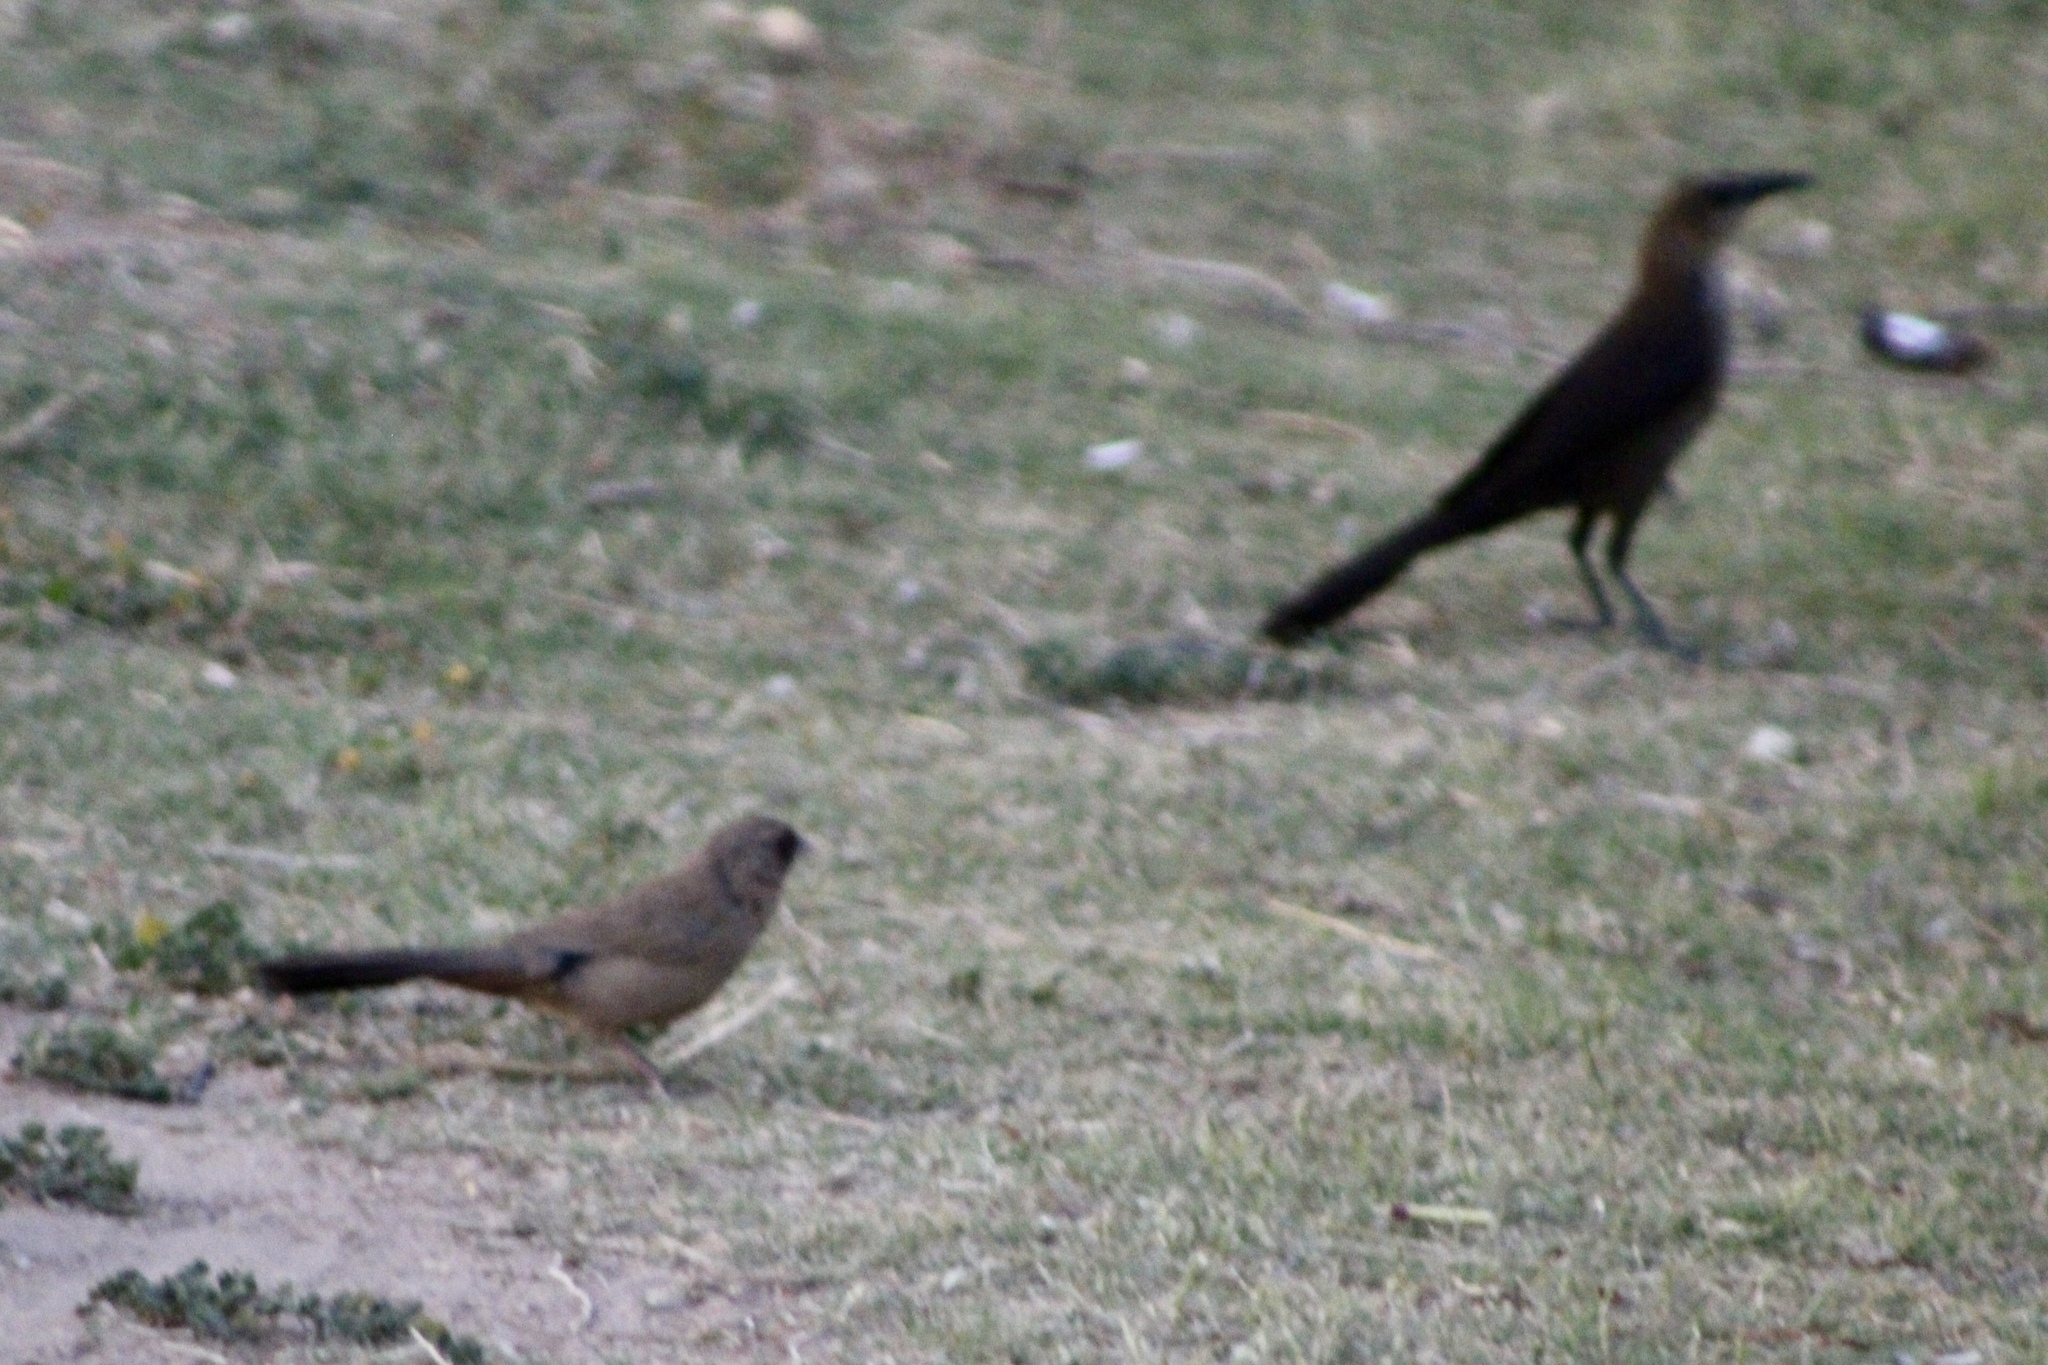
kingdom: Animalia
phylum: Chordata
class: Aves
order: Passeriformes
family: Passerellidae
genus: Melozone
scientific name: Melozone aberti
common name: Abert's towhee
